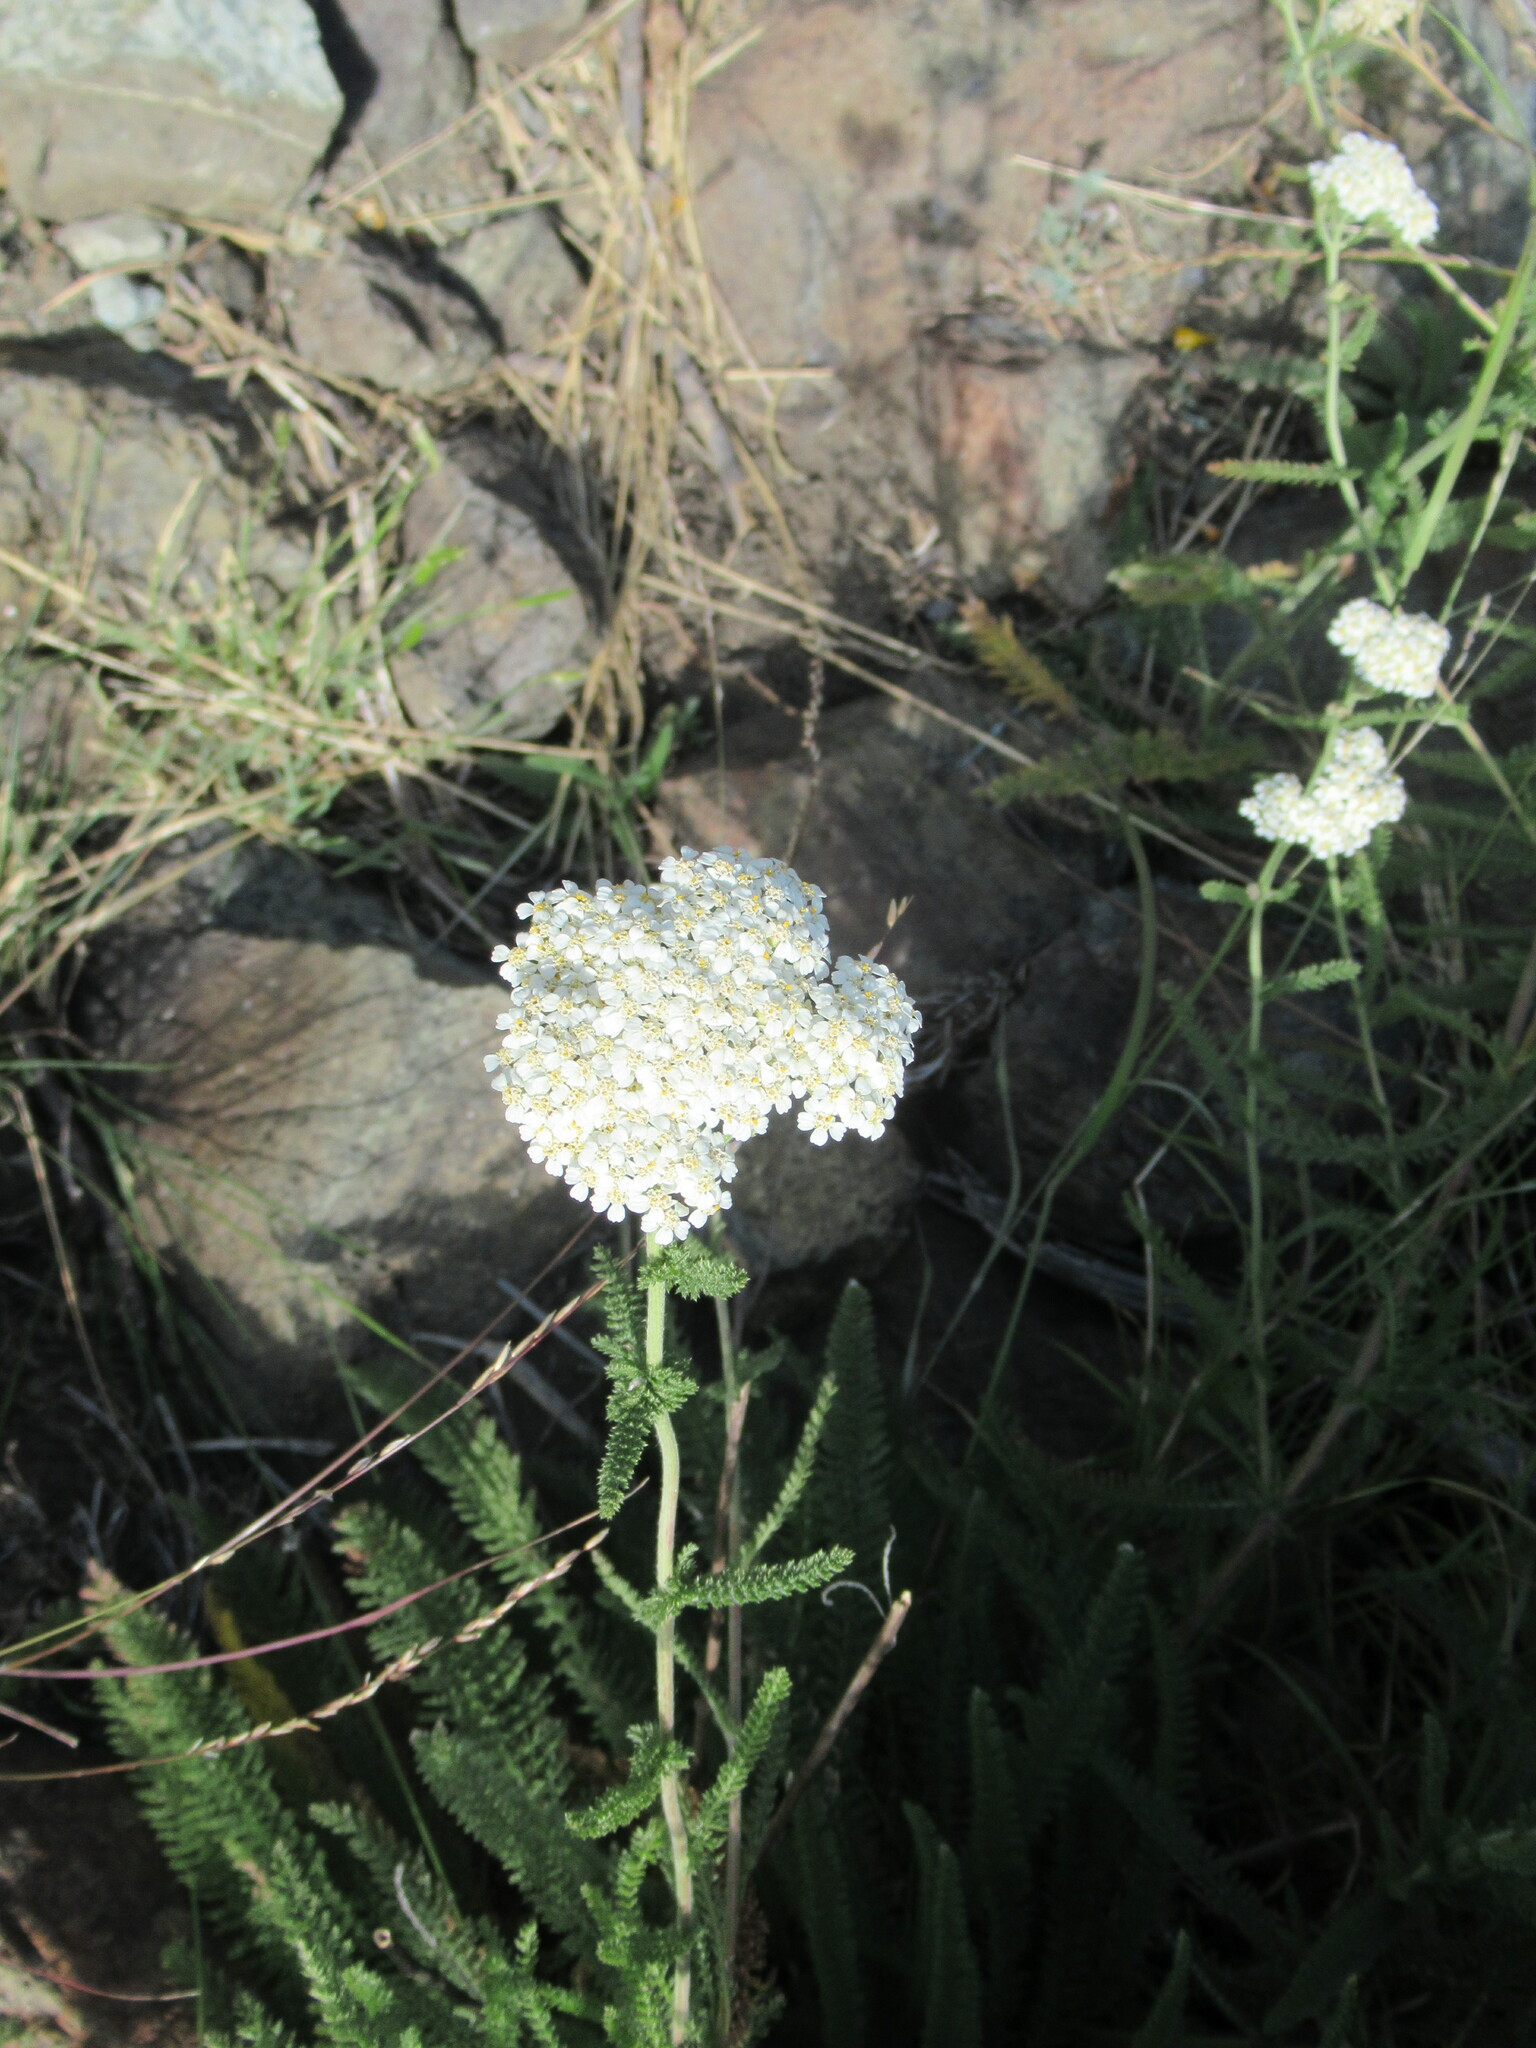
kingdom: Plantae
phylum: Tracheophyta
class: Magnoliopsida
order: Asterales
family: Asteraceae
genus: Achillea
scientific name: Achillea millefolium
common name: Yarrow
